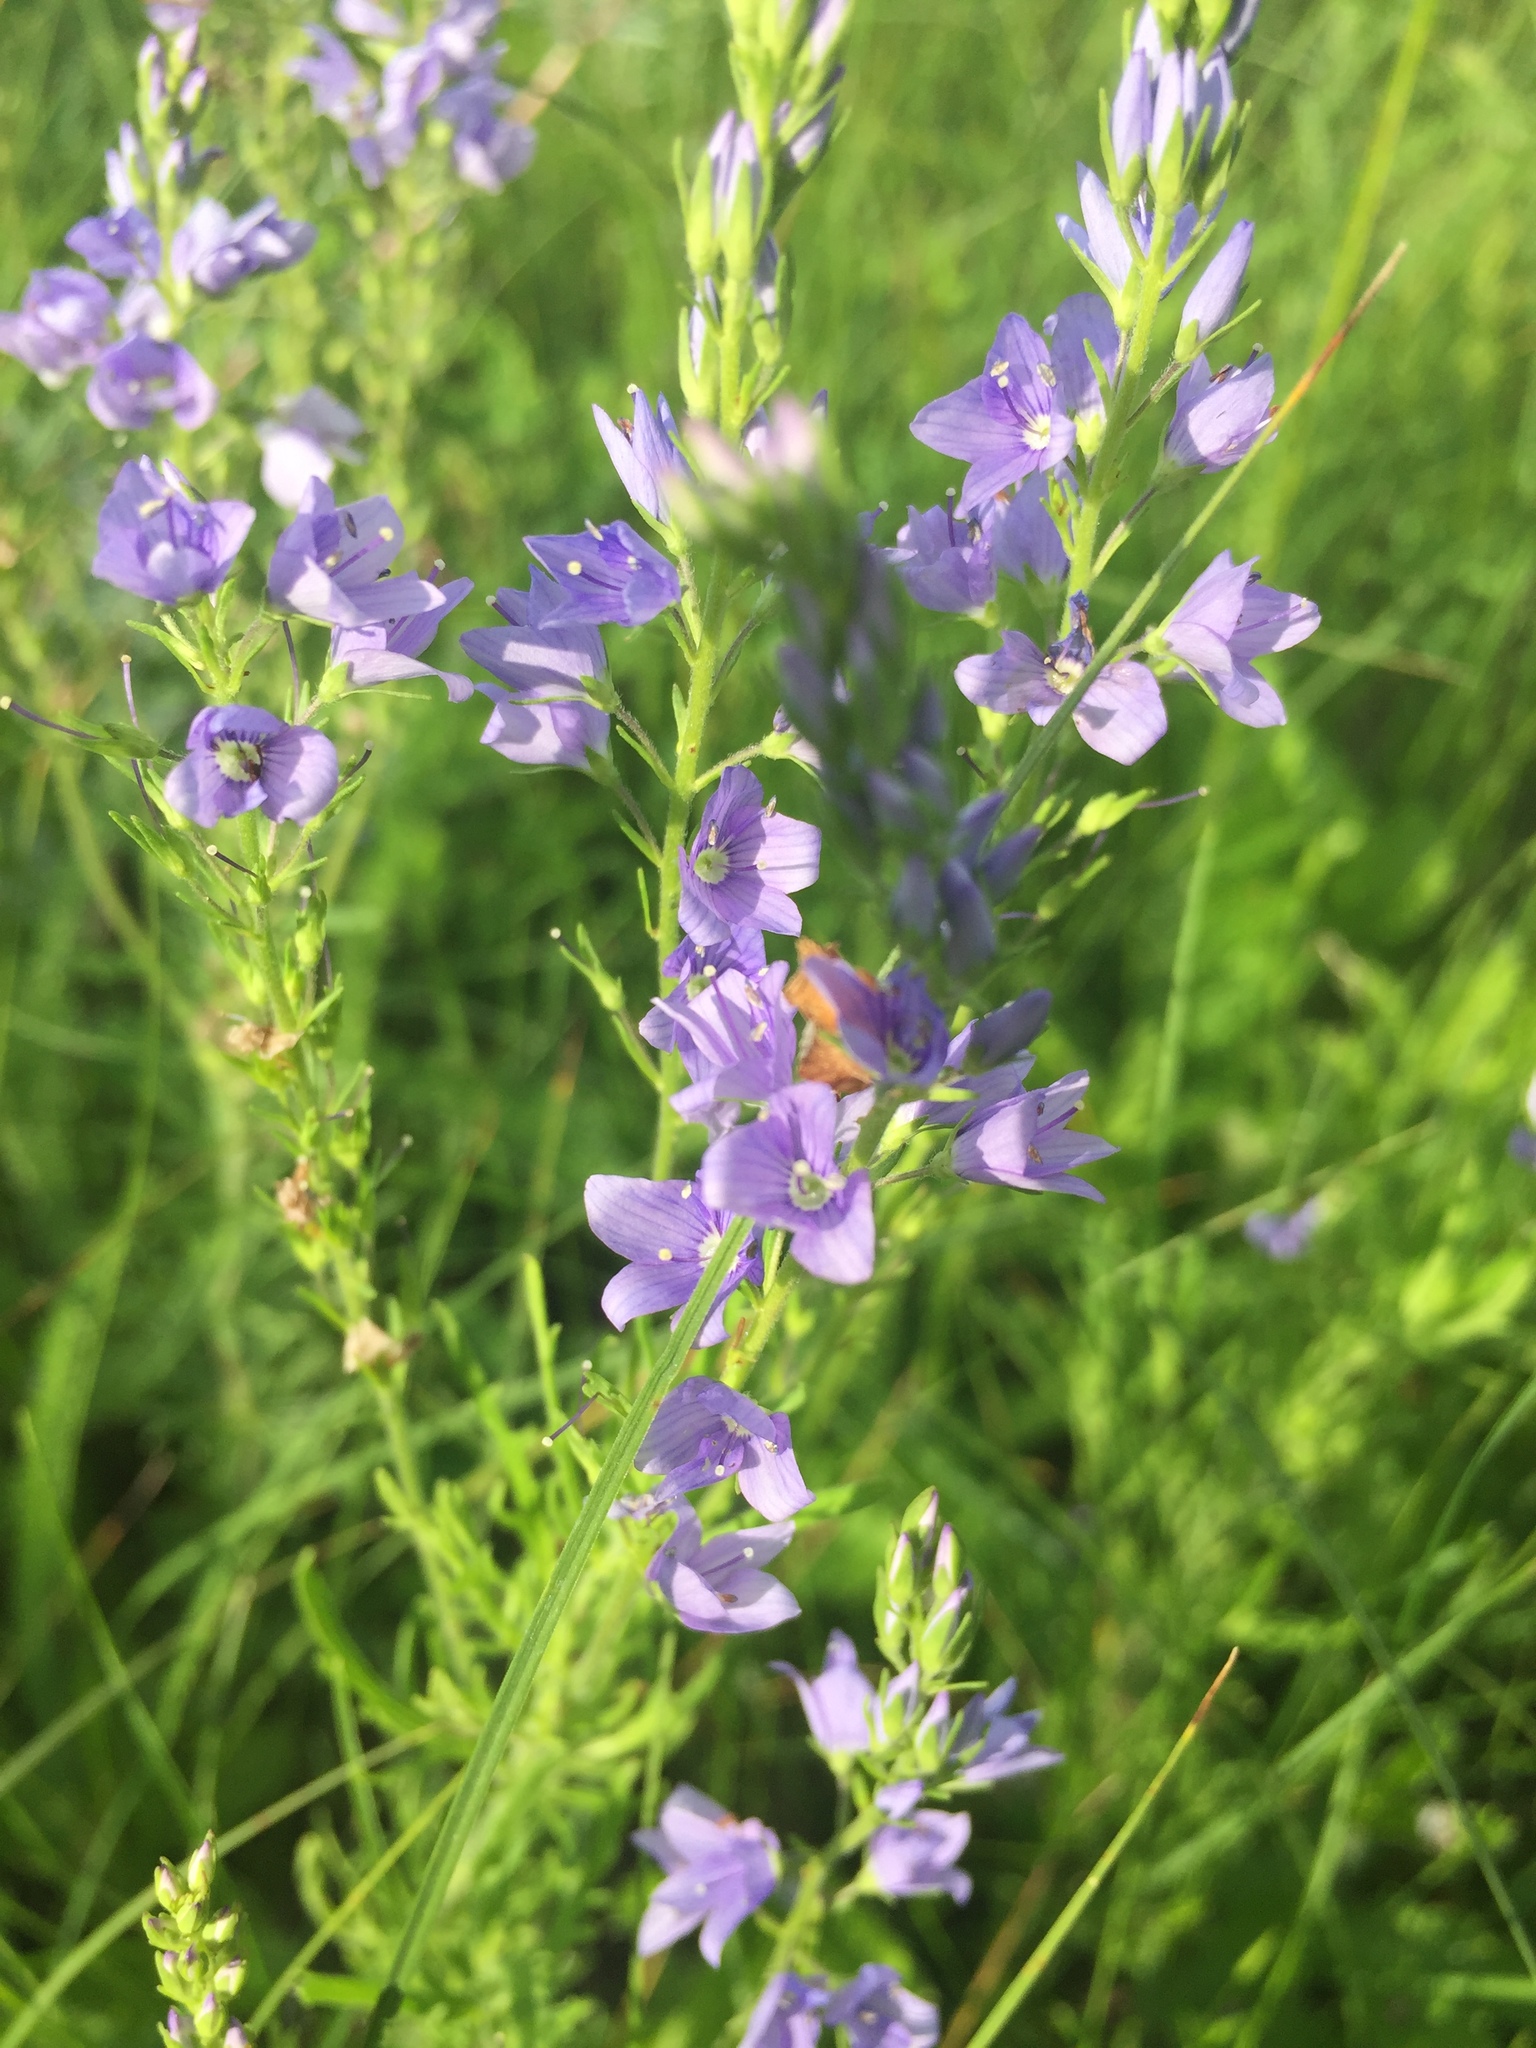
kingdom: Plantae
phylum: Tracheophyta
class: Magnoliopsida
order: Lamiales
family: Plantaginaceae
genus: Veronica
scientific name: Veronica austriaca
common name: Large speedwell
